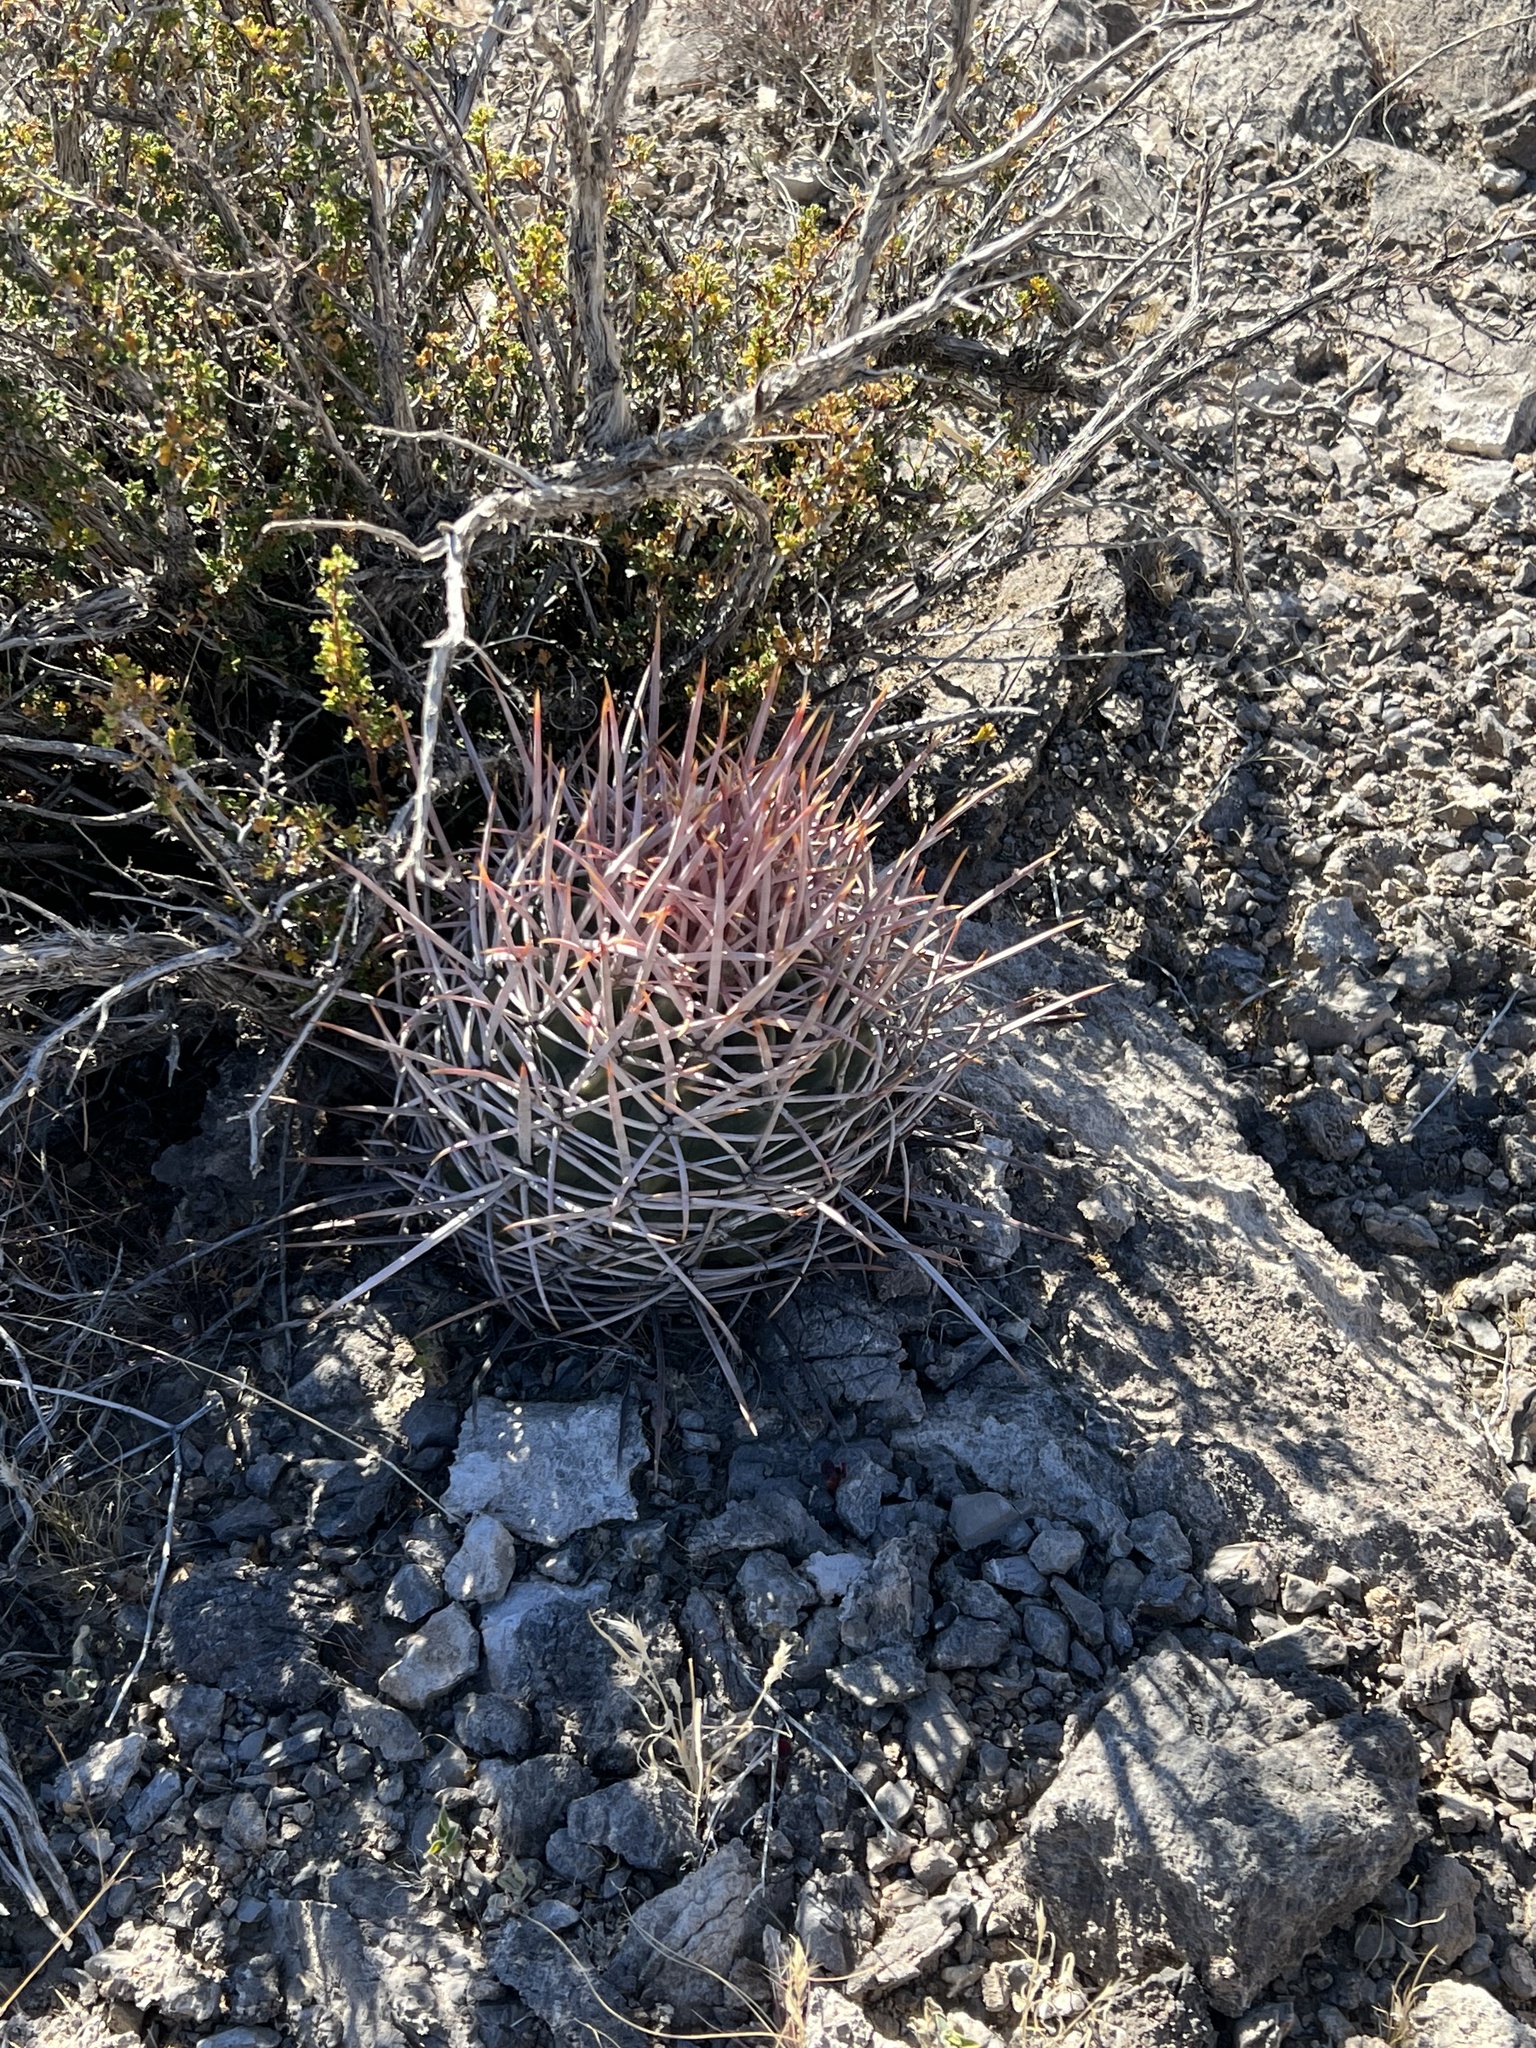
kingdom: Plantae
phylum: Tracheophyta
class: Magnoliopsida
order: Caryophyllales
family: Cactaceae
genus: Echinocactus
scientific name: Echinocactus polycephalus
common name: Cottontop cactus
